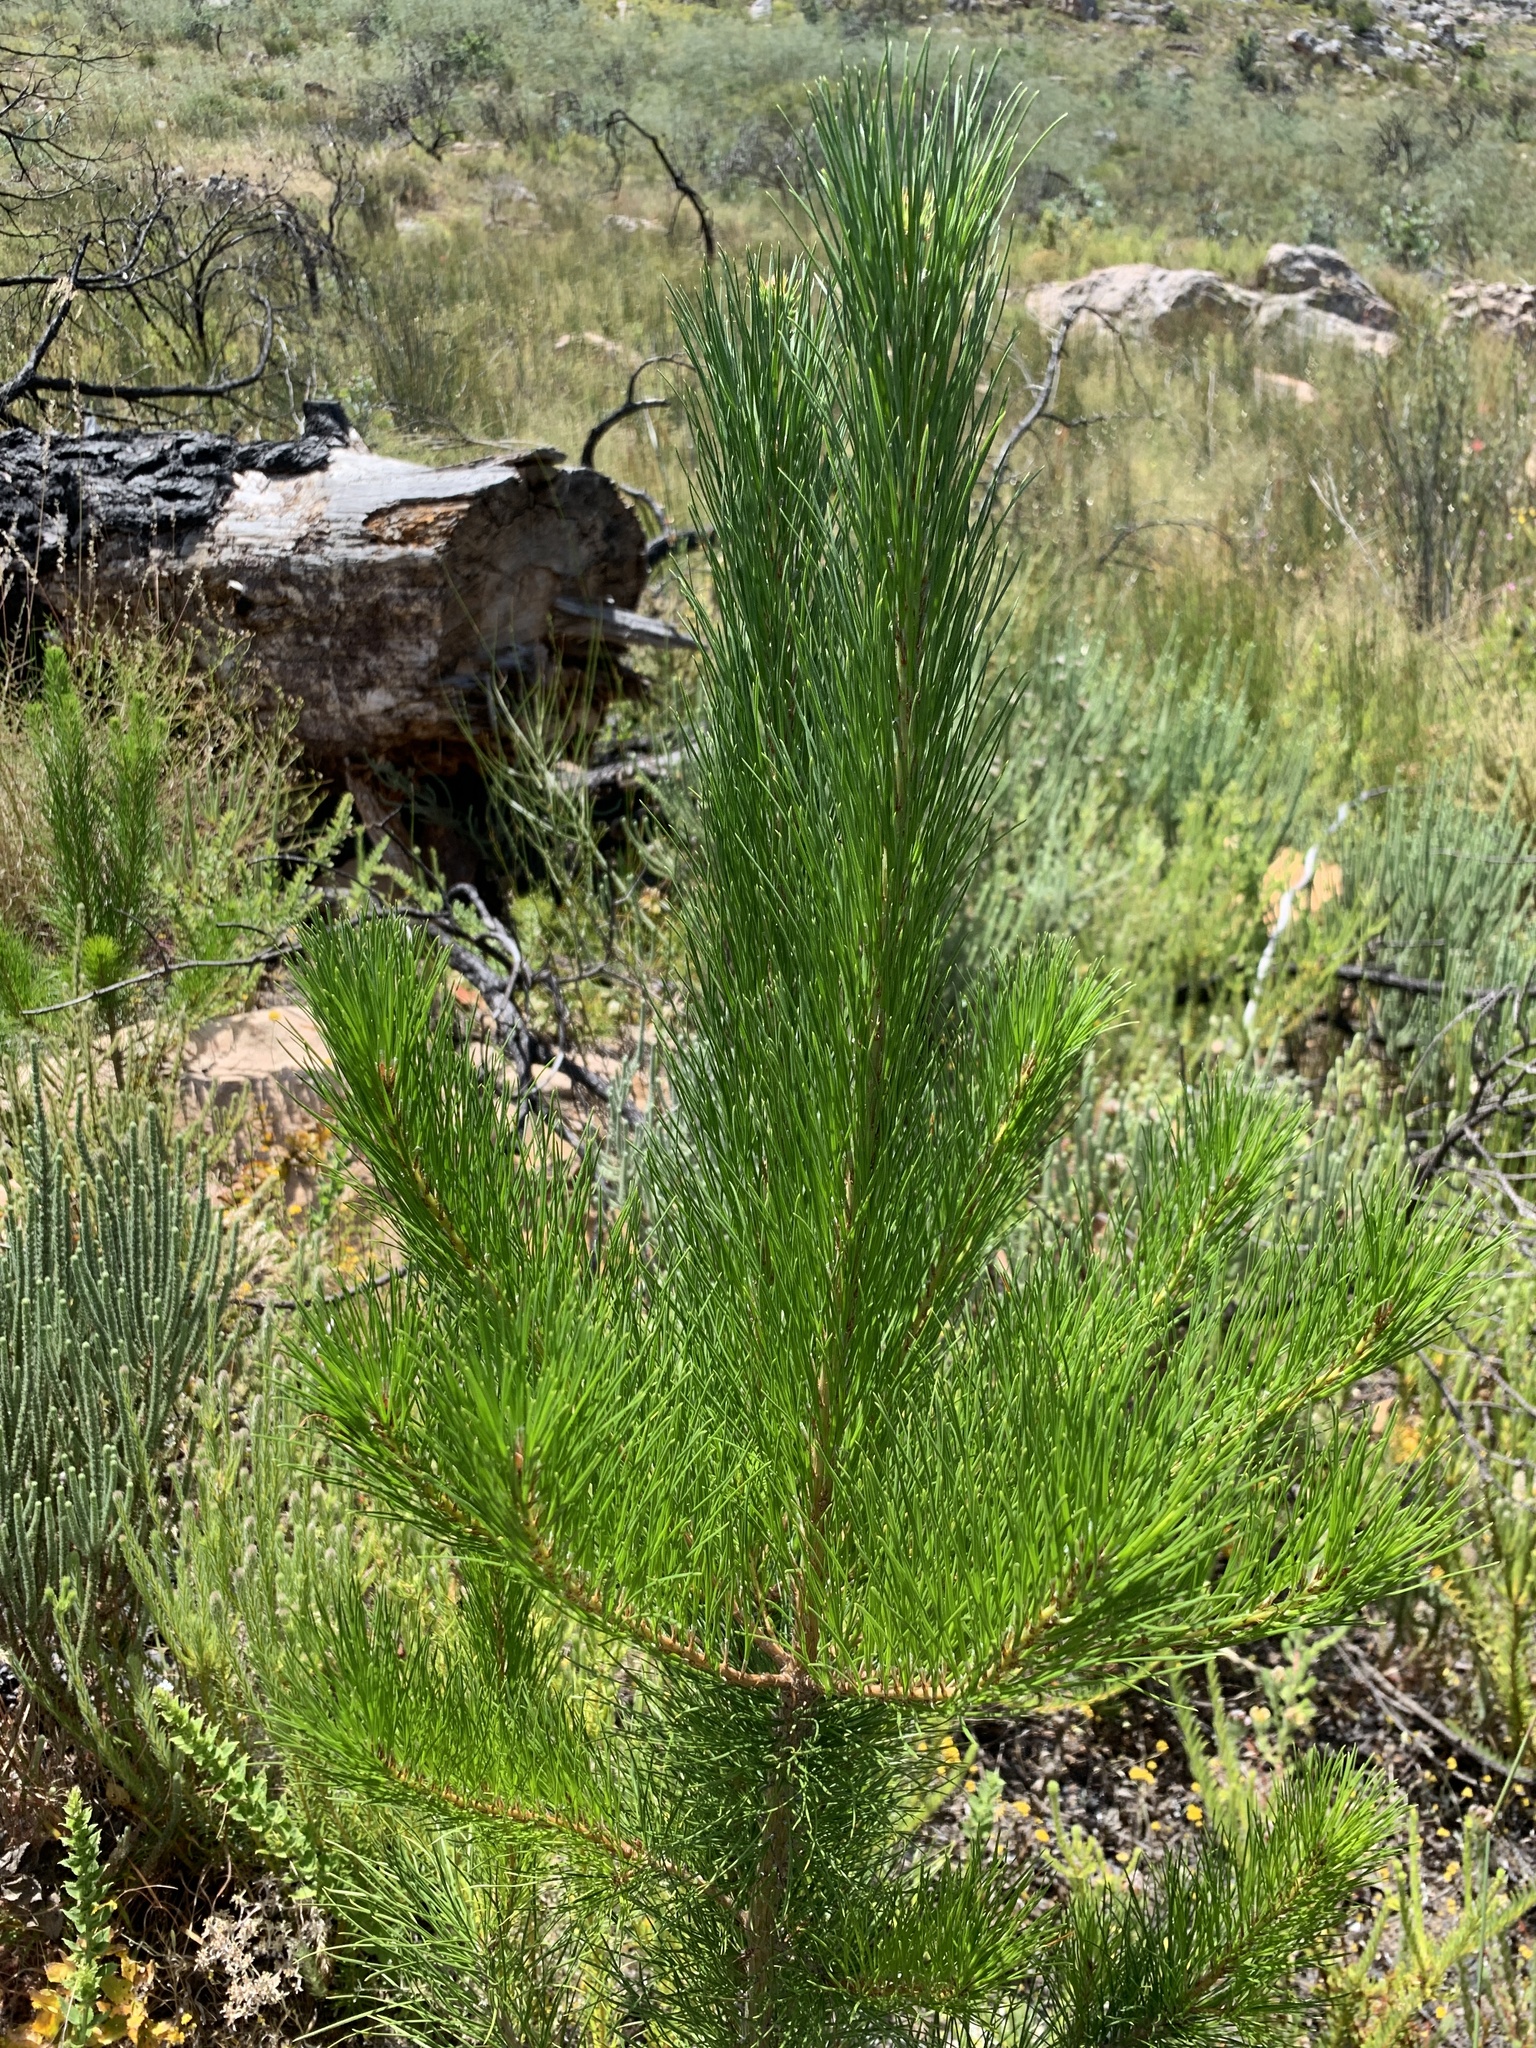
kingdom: Plantae
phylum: Tracheophyta
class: Pinopsida
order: Pinales
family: Pinaceae
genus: Pinus
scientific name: Pinus radiata
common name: Monterey pine
